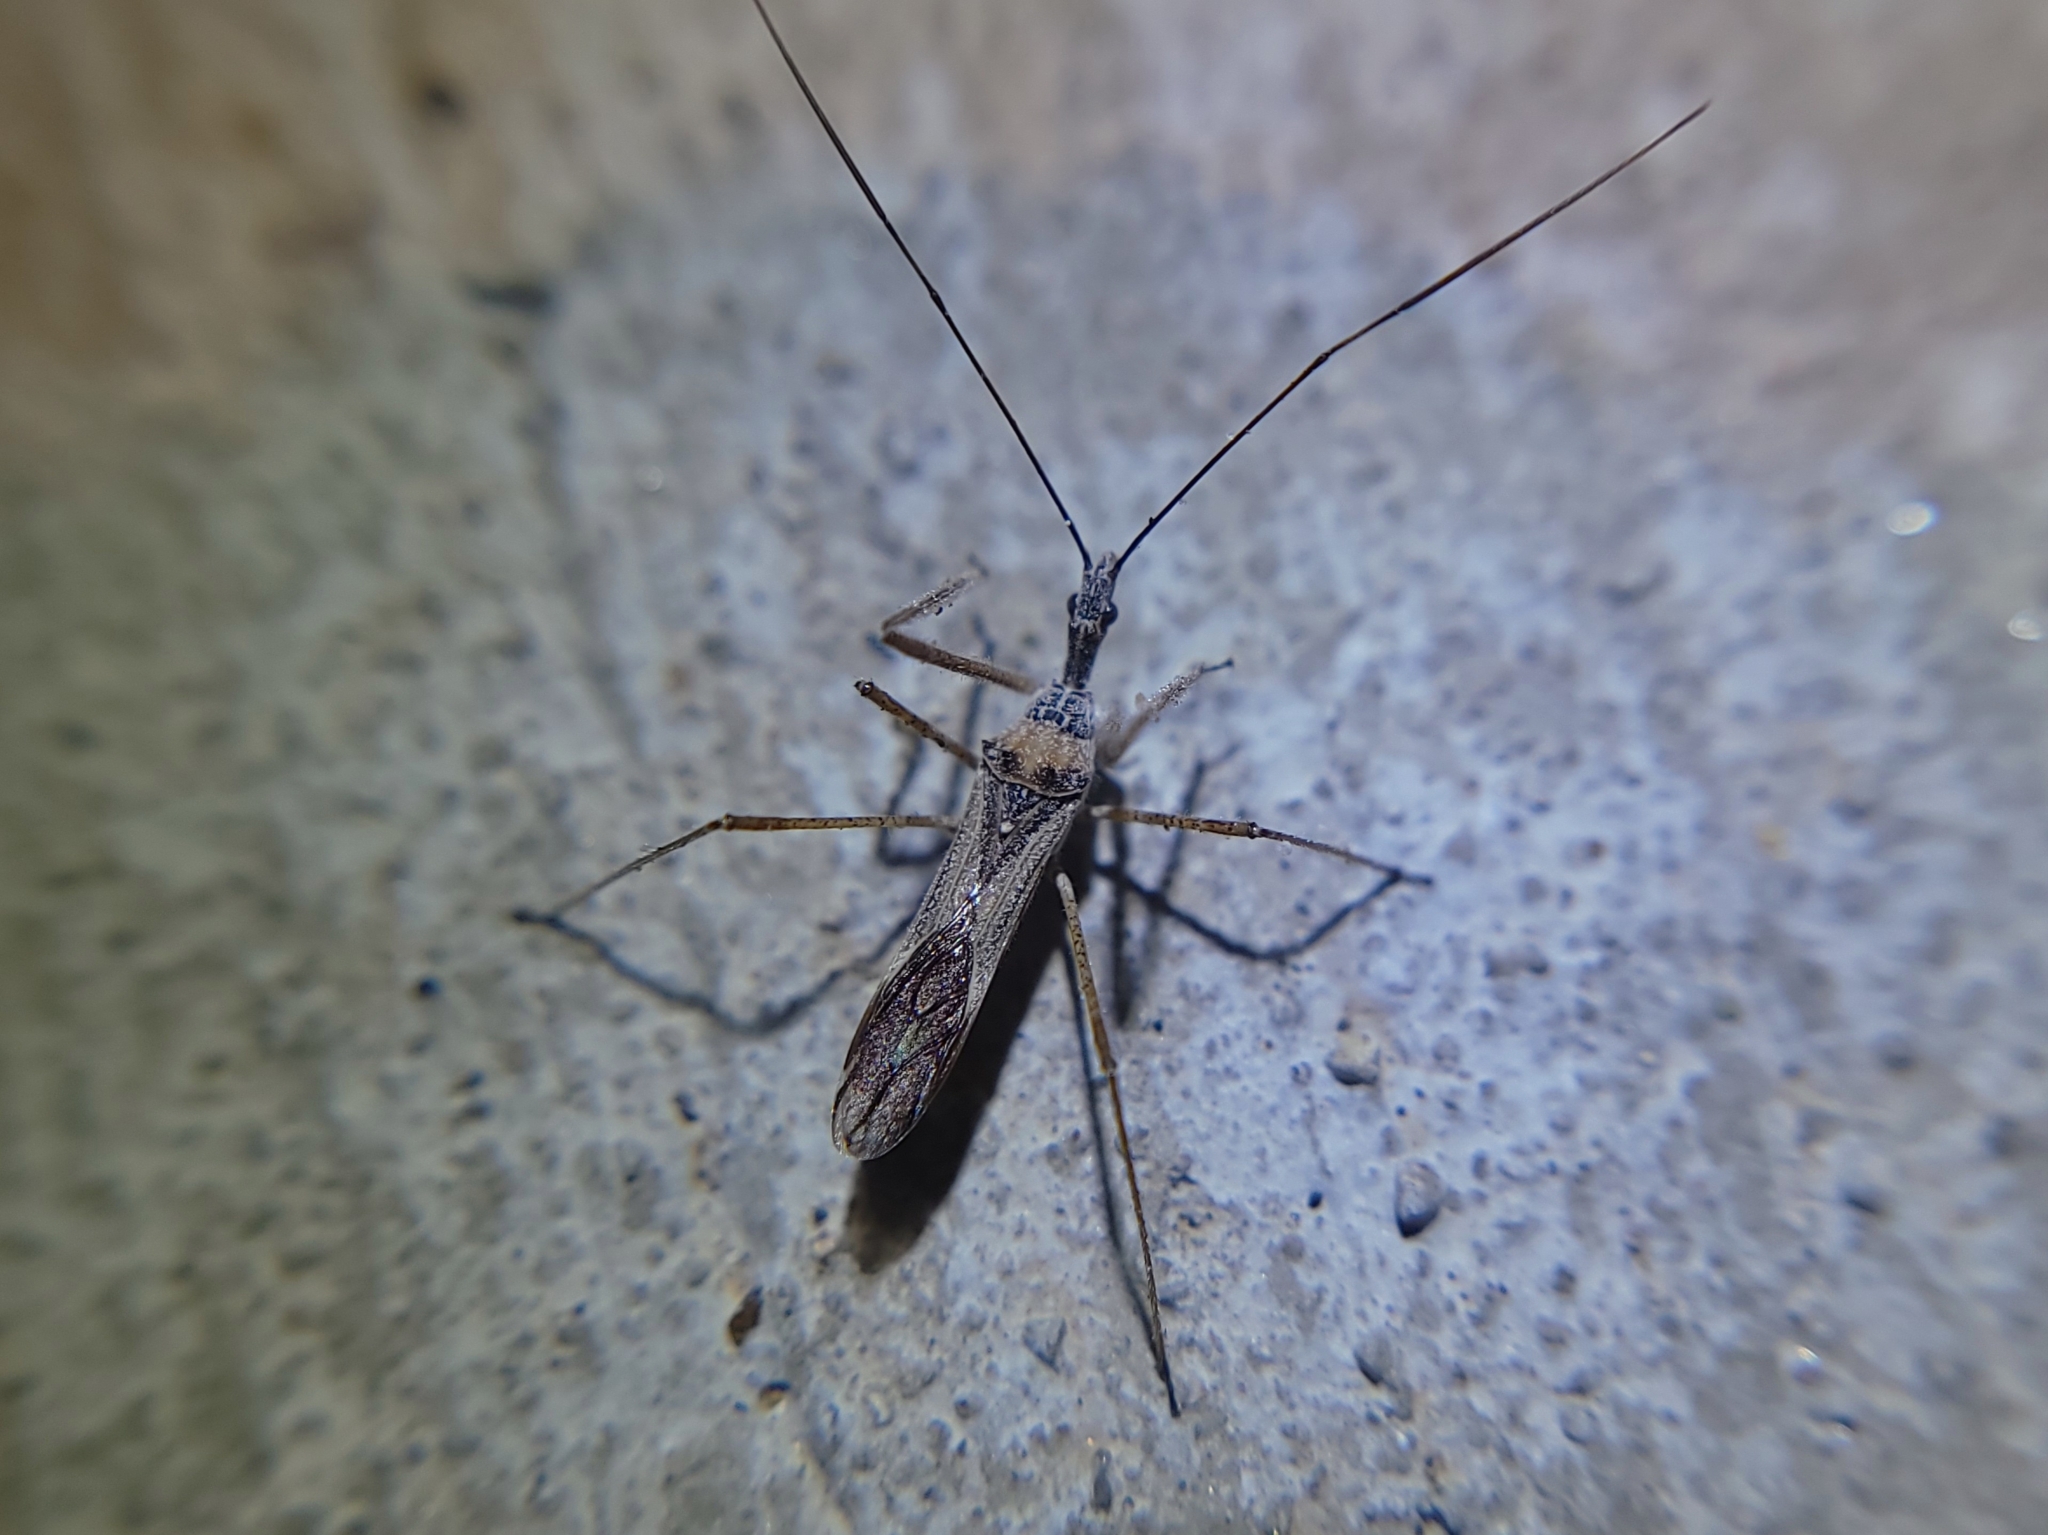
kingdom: Animalia
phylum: Arthropoda
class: Insecta
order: Hemiptera
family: Reduviidae
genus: Zelus
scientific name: Zelus tetracanthus
